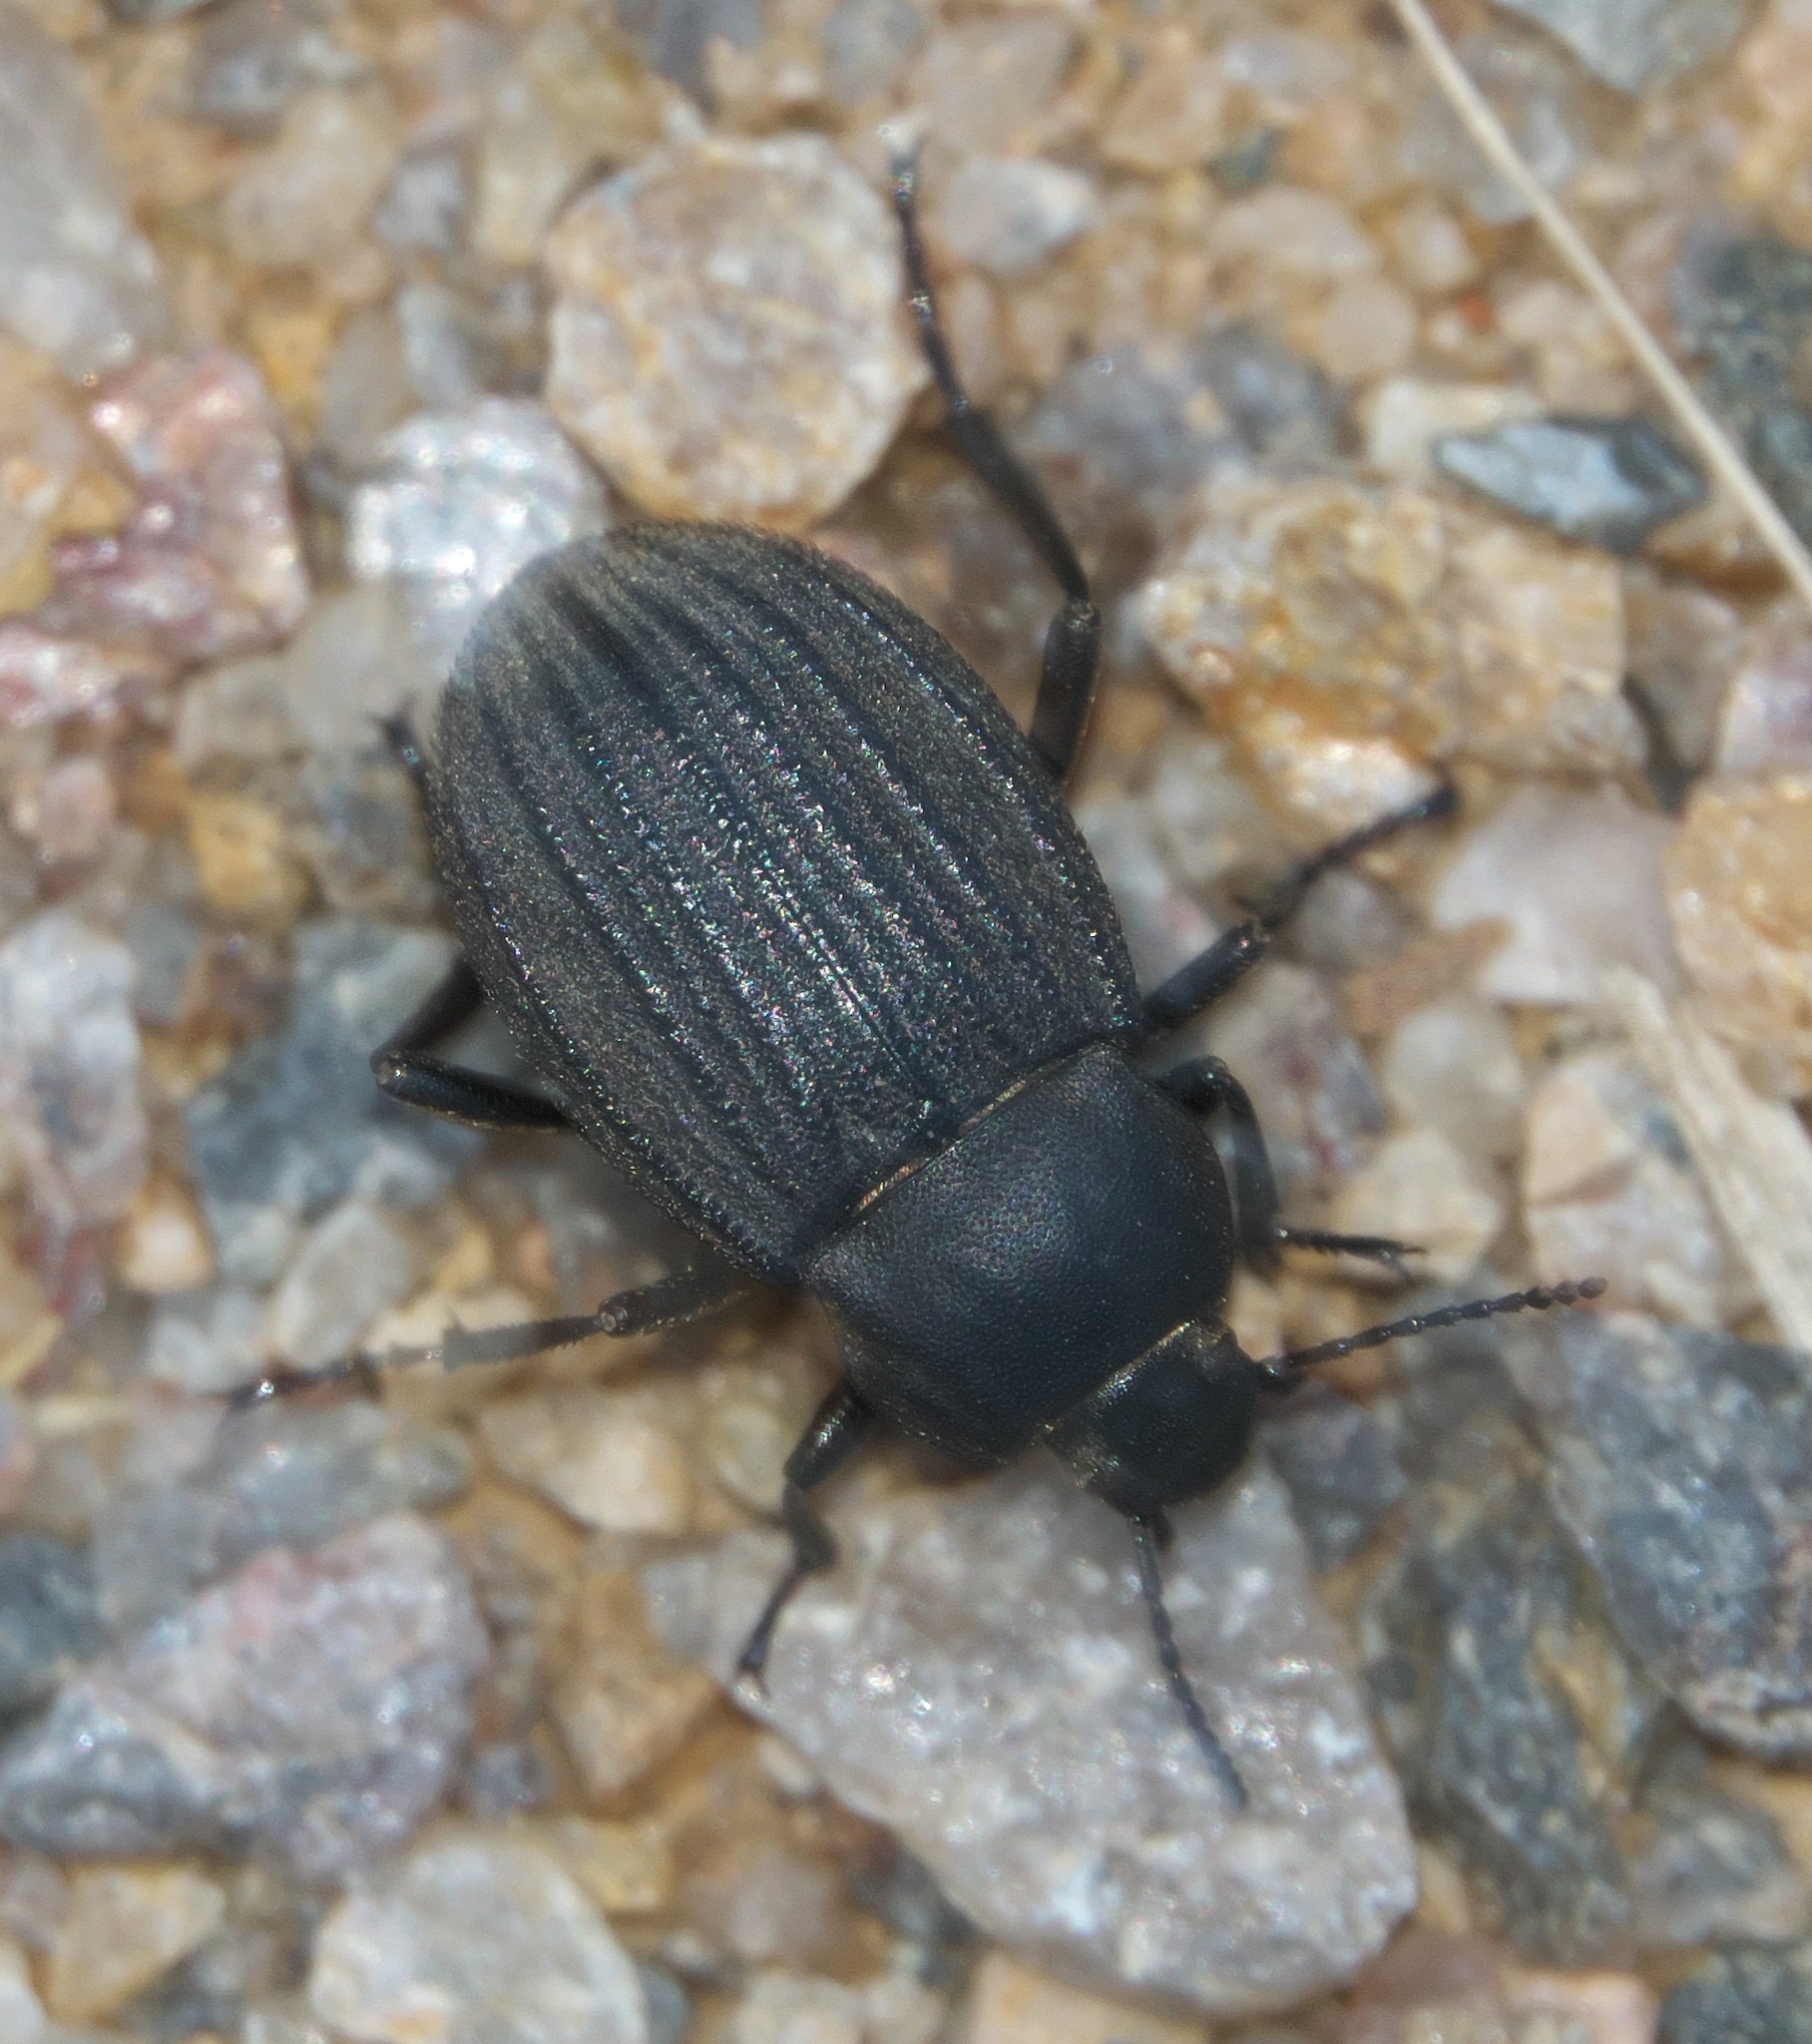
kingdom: Animalia
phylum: Arthropoda
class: Insecta
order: Coleoptera
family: Tenebrionidae
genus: Eleodes
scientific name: Eleodes tricostata
